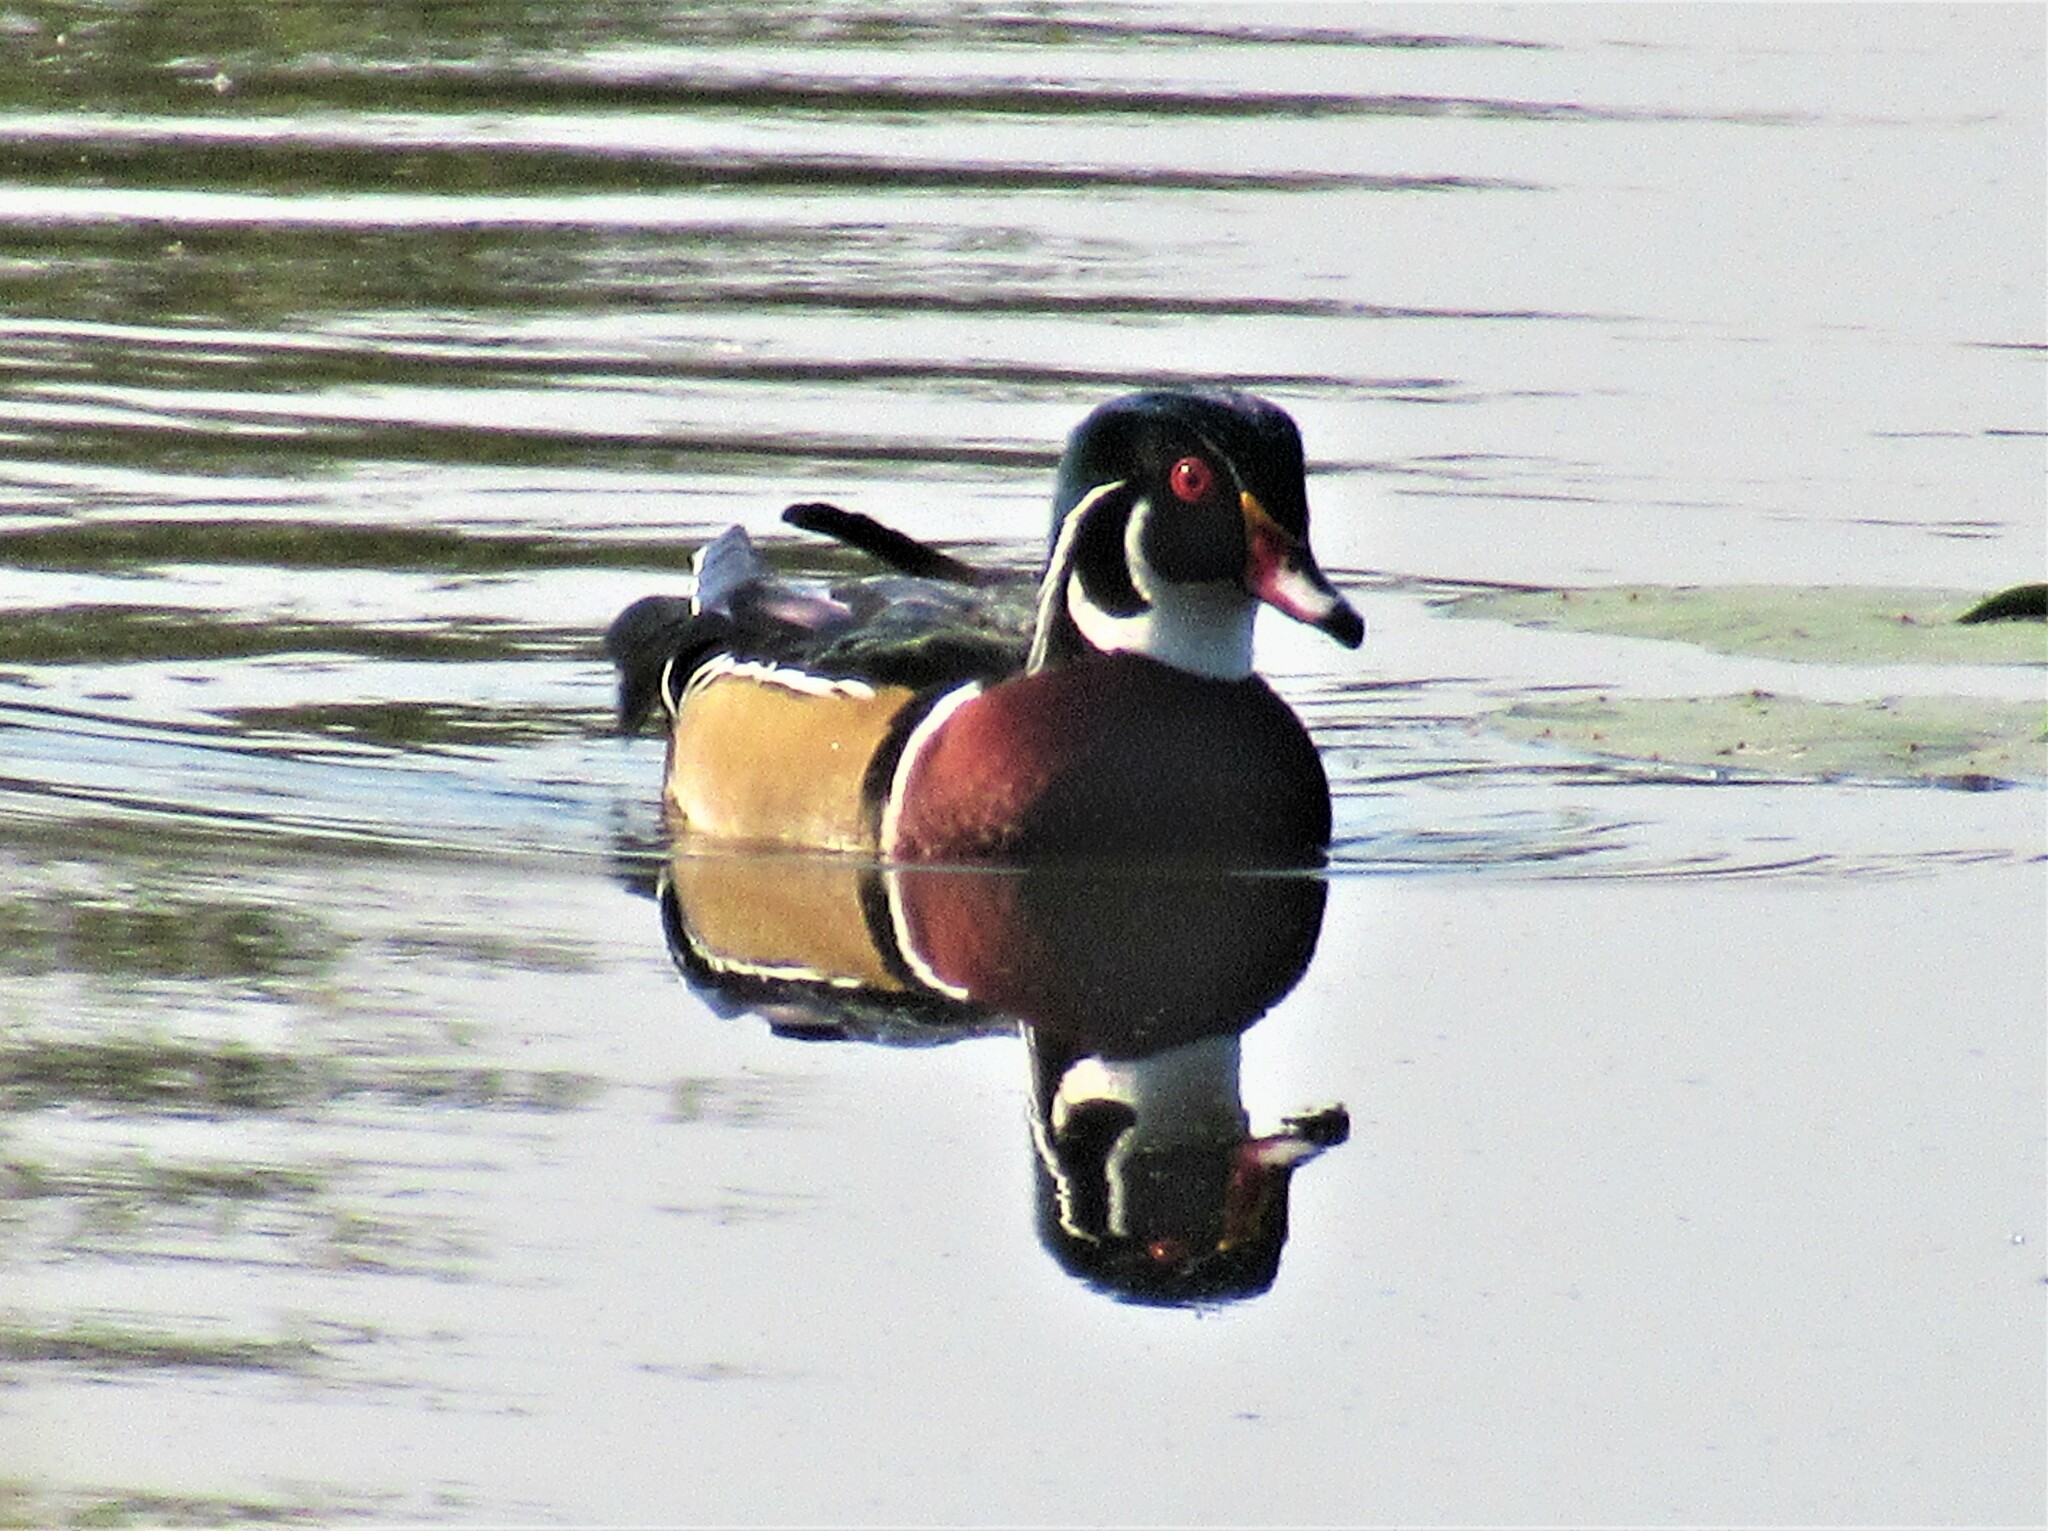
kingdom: Animalia
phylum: Chordata
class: Aves
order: Anseriformes
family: Anatidae
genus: Aix
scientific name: Aix sponsa
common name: Wood duck
